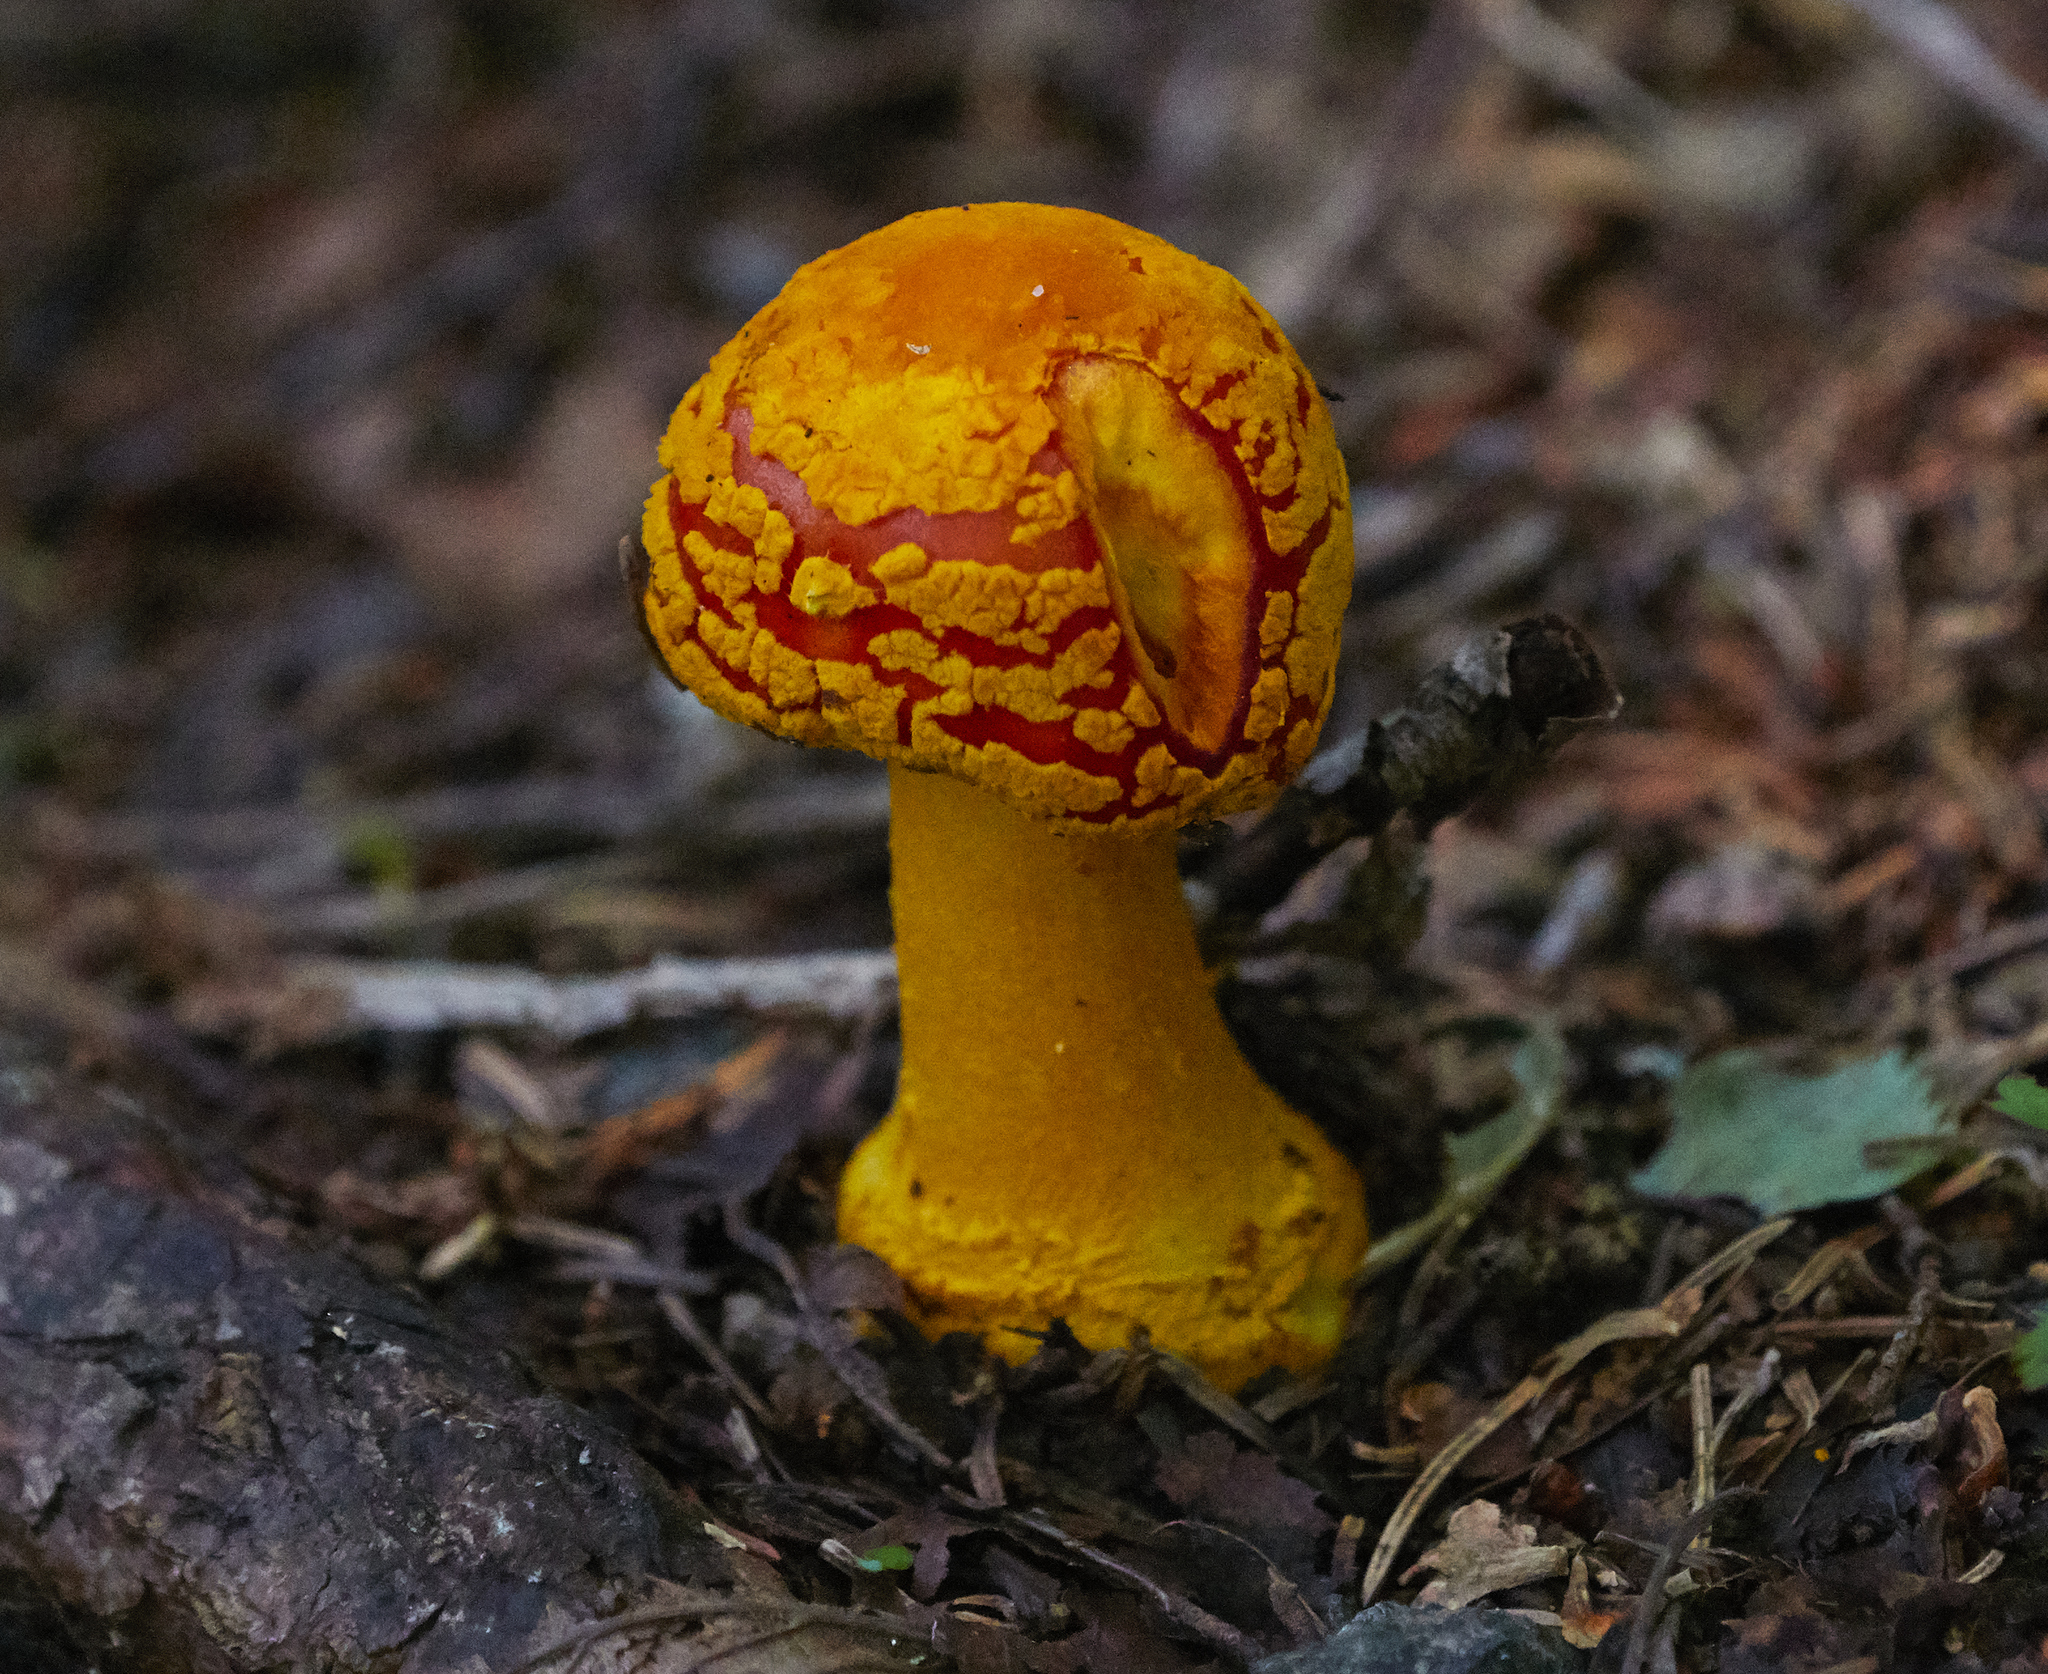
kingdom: Fungi
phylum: Basidiomycota
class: Agaricomycetes
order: Agaricales
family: Amanitaceae
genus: Amanita
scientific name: Amanita flavoconia
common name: Yellow patches
